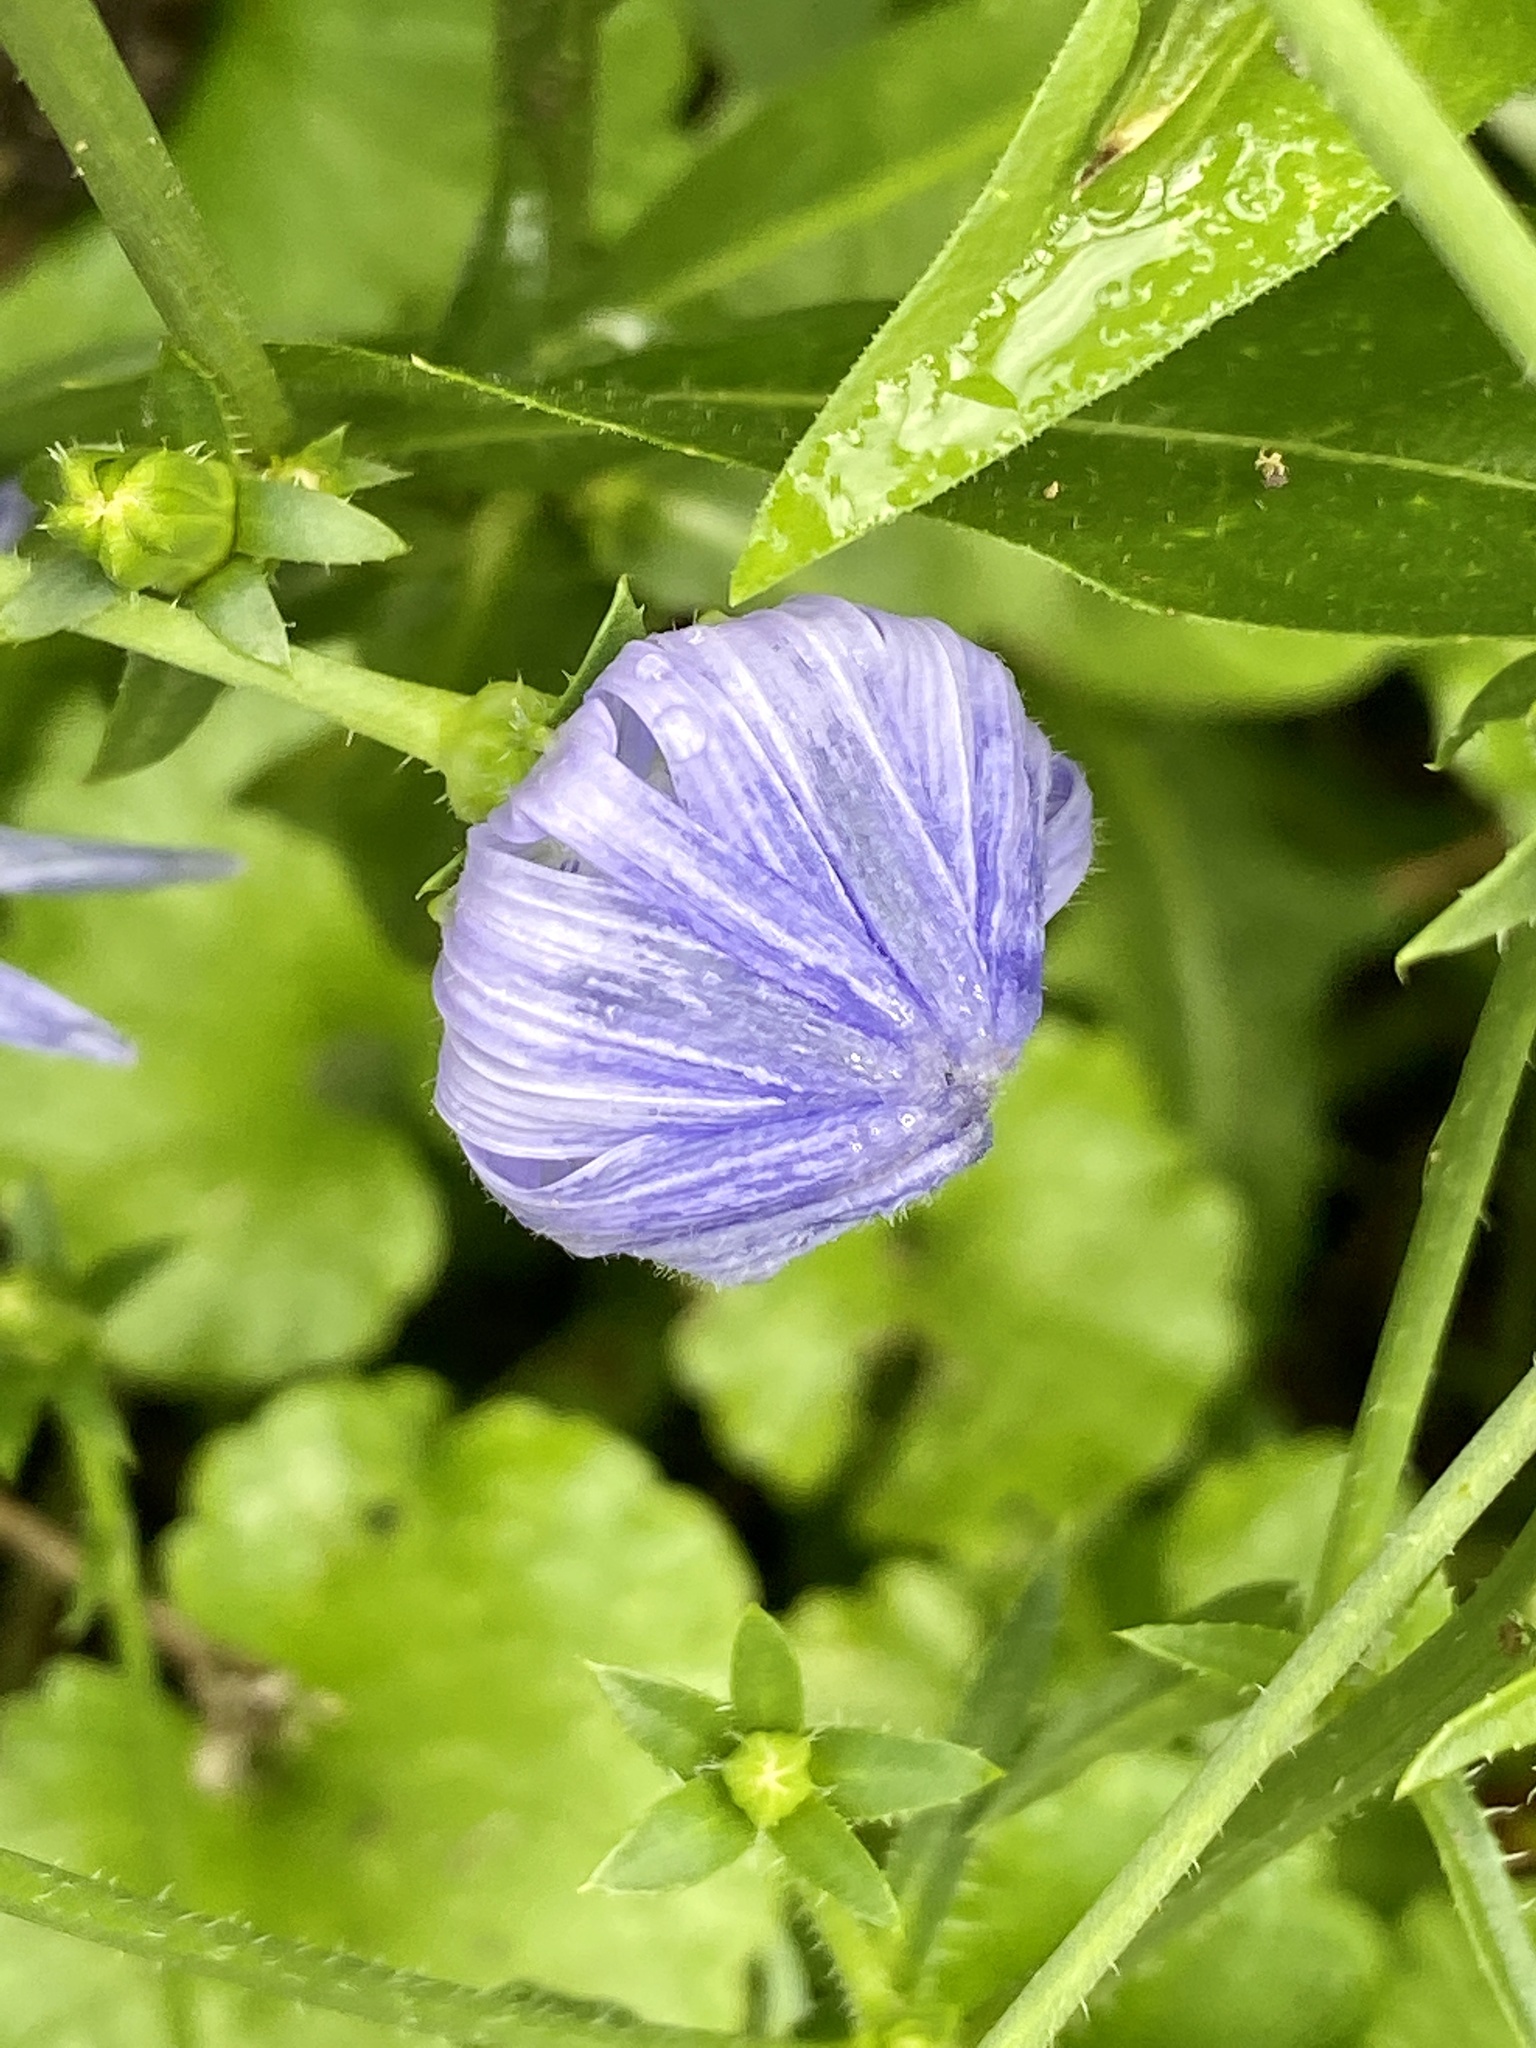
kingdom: Plantae
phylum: Tracheophyta
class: Magnoliopsida
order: Asterales
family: Asteraceae
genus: Cichorium
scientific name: Cichorium intybus
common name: Chicory
